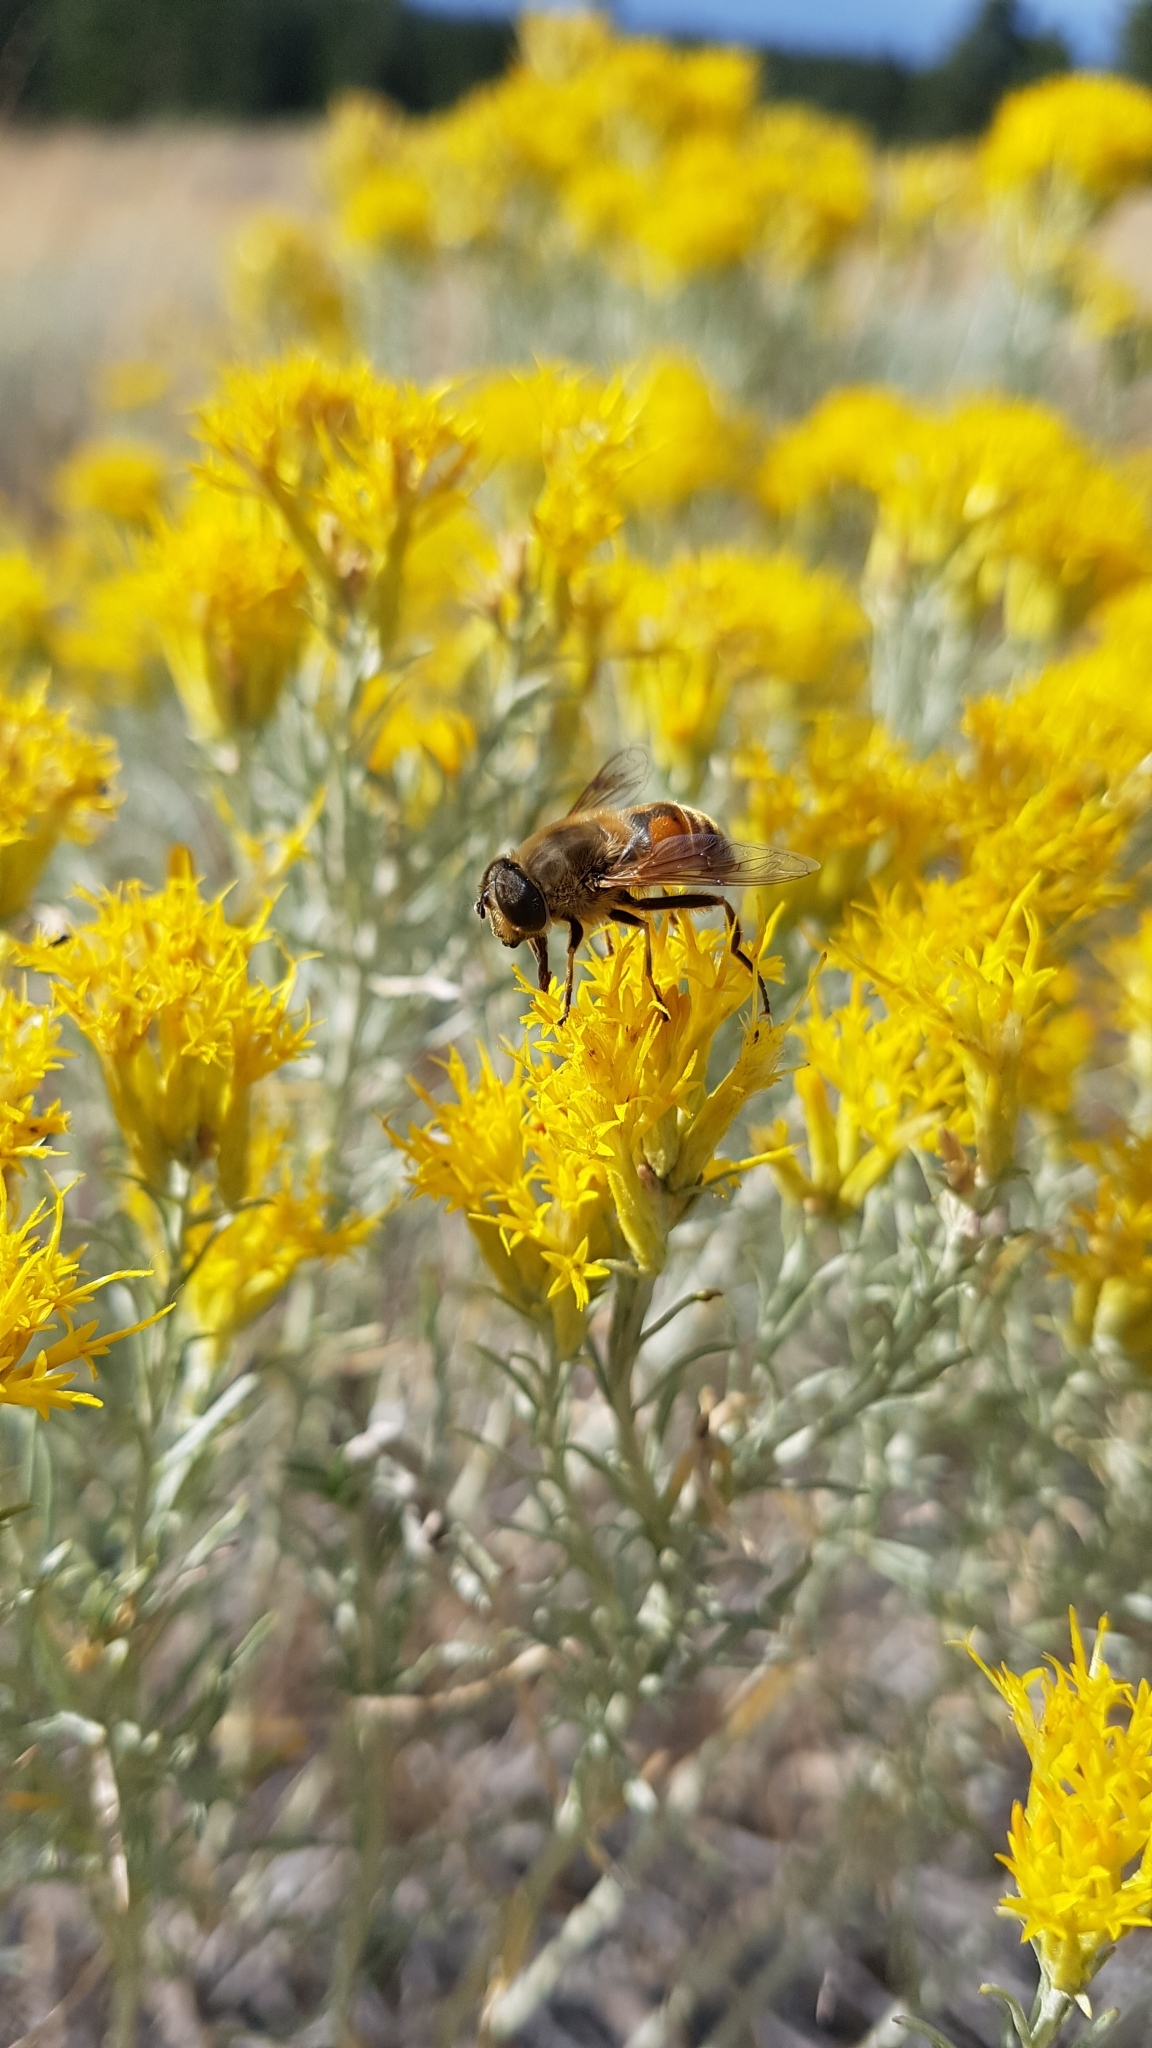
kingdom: Animalia
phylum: Arthropoda
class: Insecta
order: Diptera
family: Syrphidae
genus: Eristalis
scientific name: Eristalis tenax
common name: Drone fly
